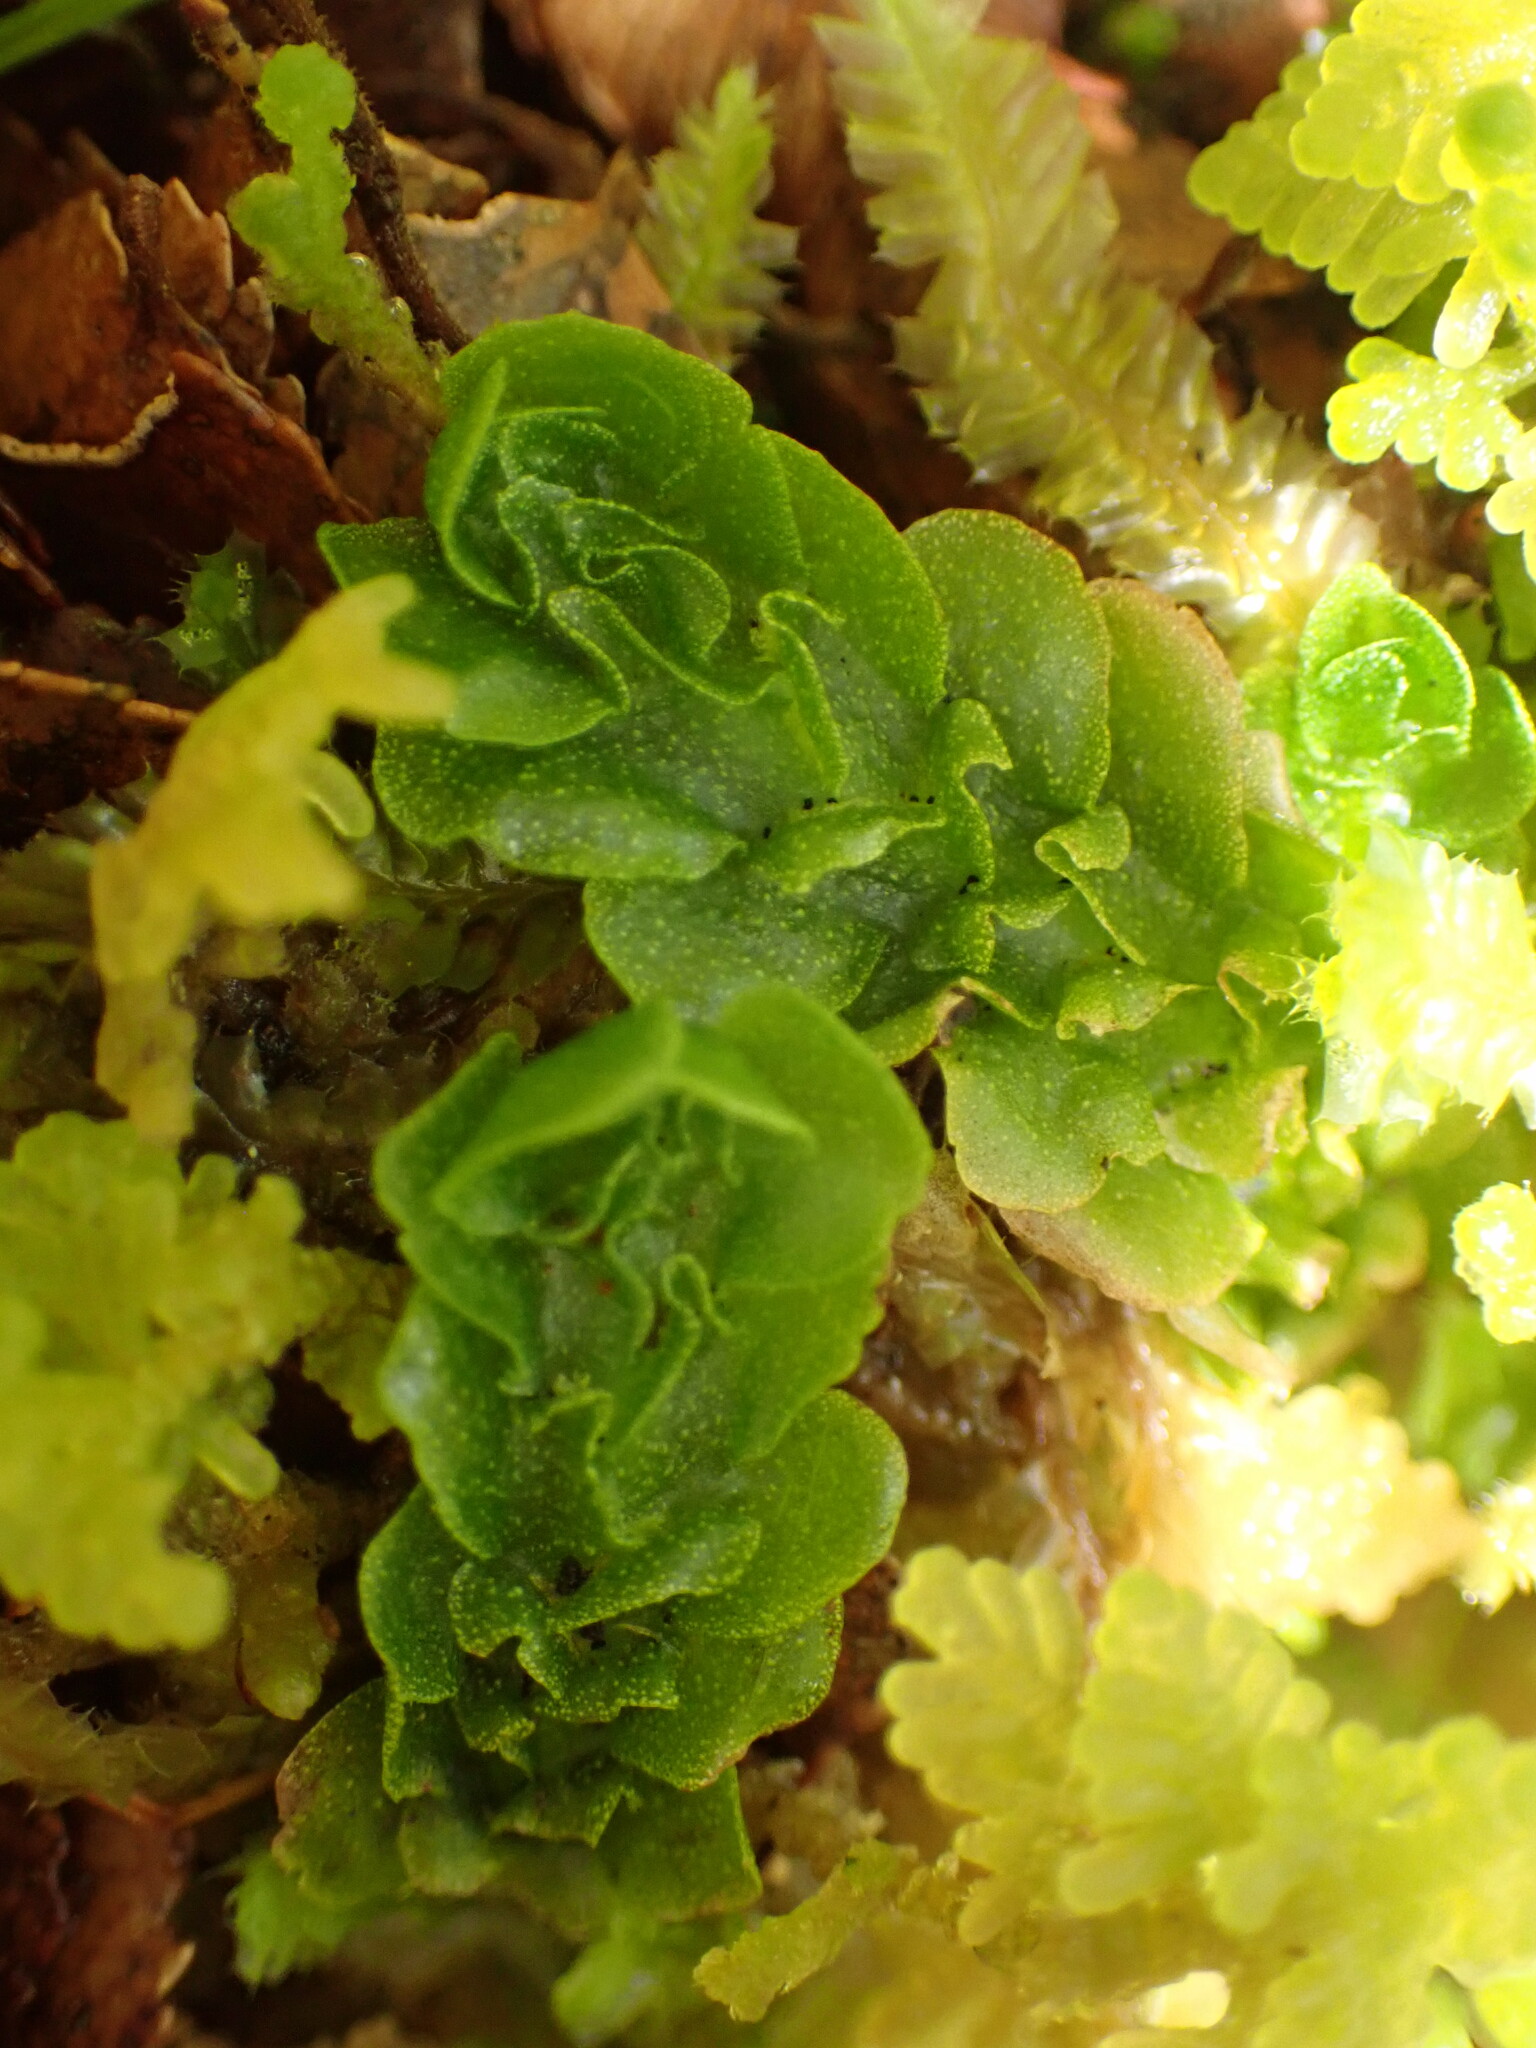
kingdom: Plantae
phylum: Marchantiophyta
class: Haplomitriopsida
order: Treubiales
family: Treubiaceae
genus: Treubia
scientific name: Treubia pygmaea
